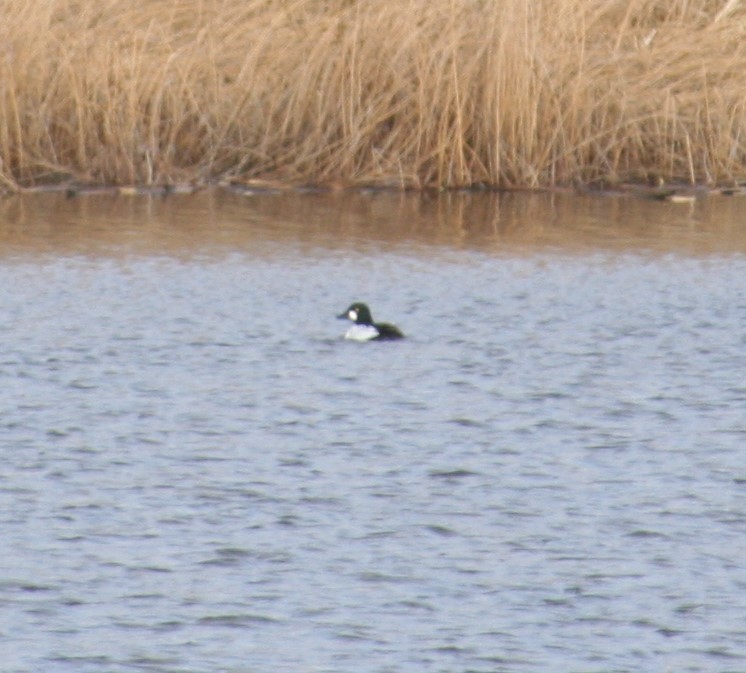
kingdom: Animalia
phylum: Chordata
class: Aves
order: Anseriformes
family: Anatidae
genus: Bucephala
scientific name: Bucephala clangula
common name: Common goldeneye
